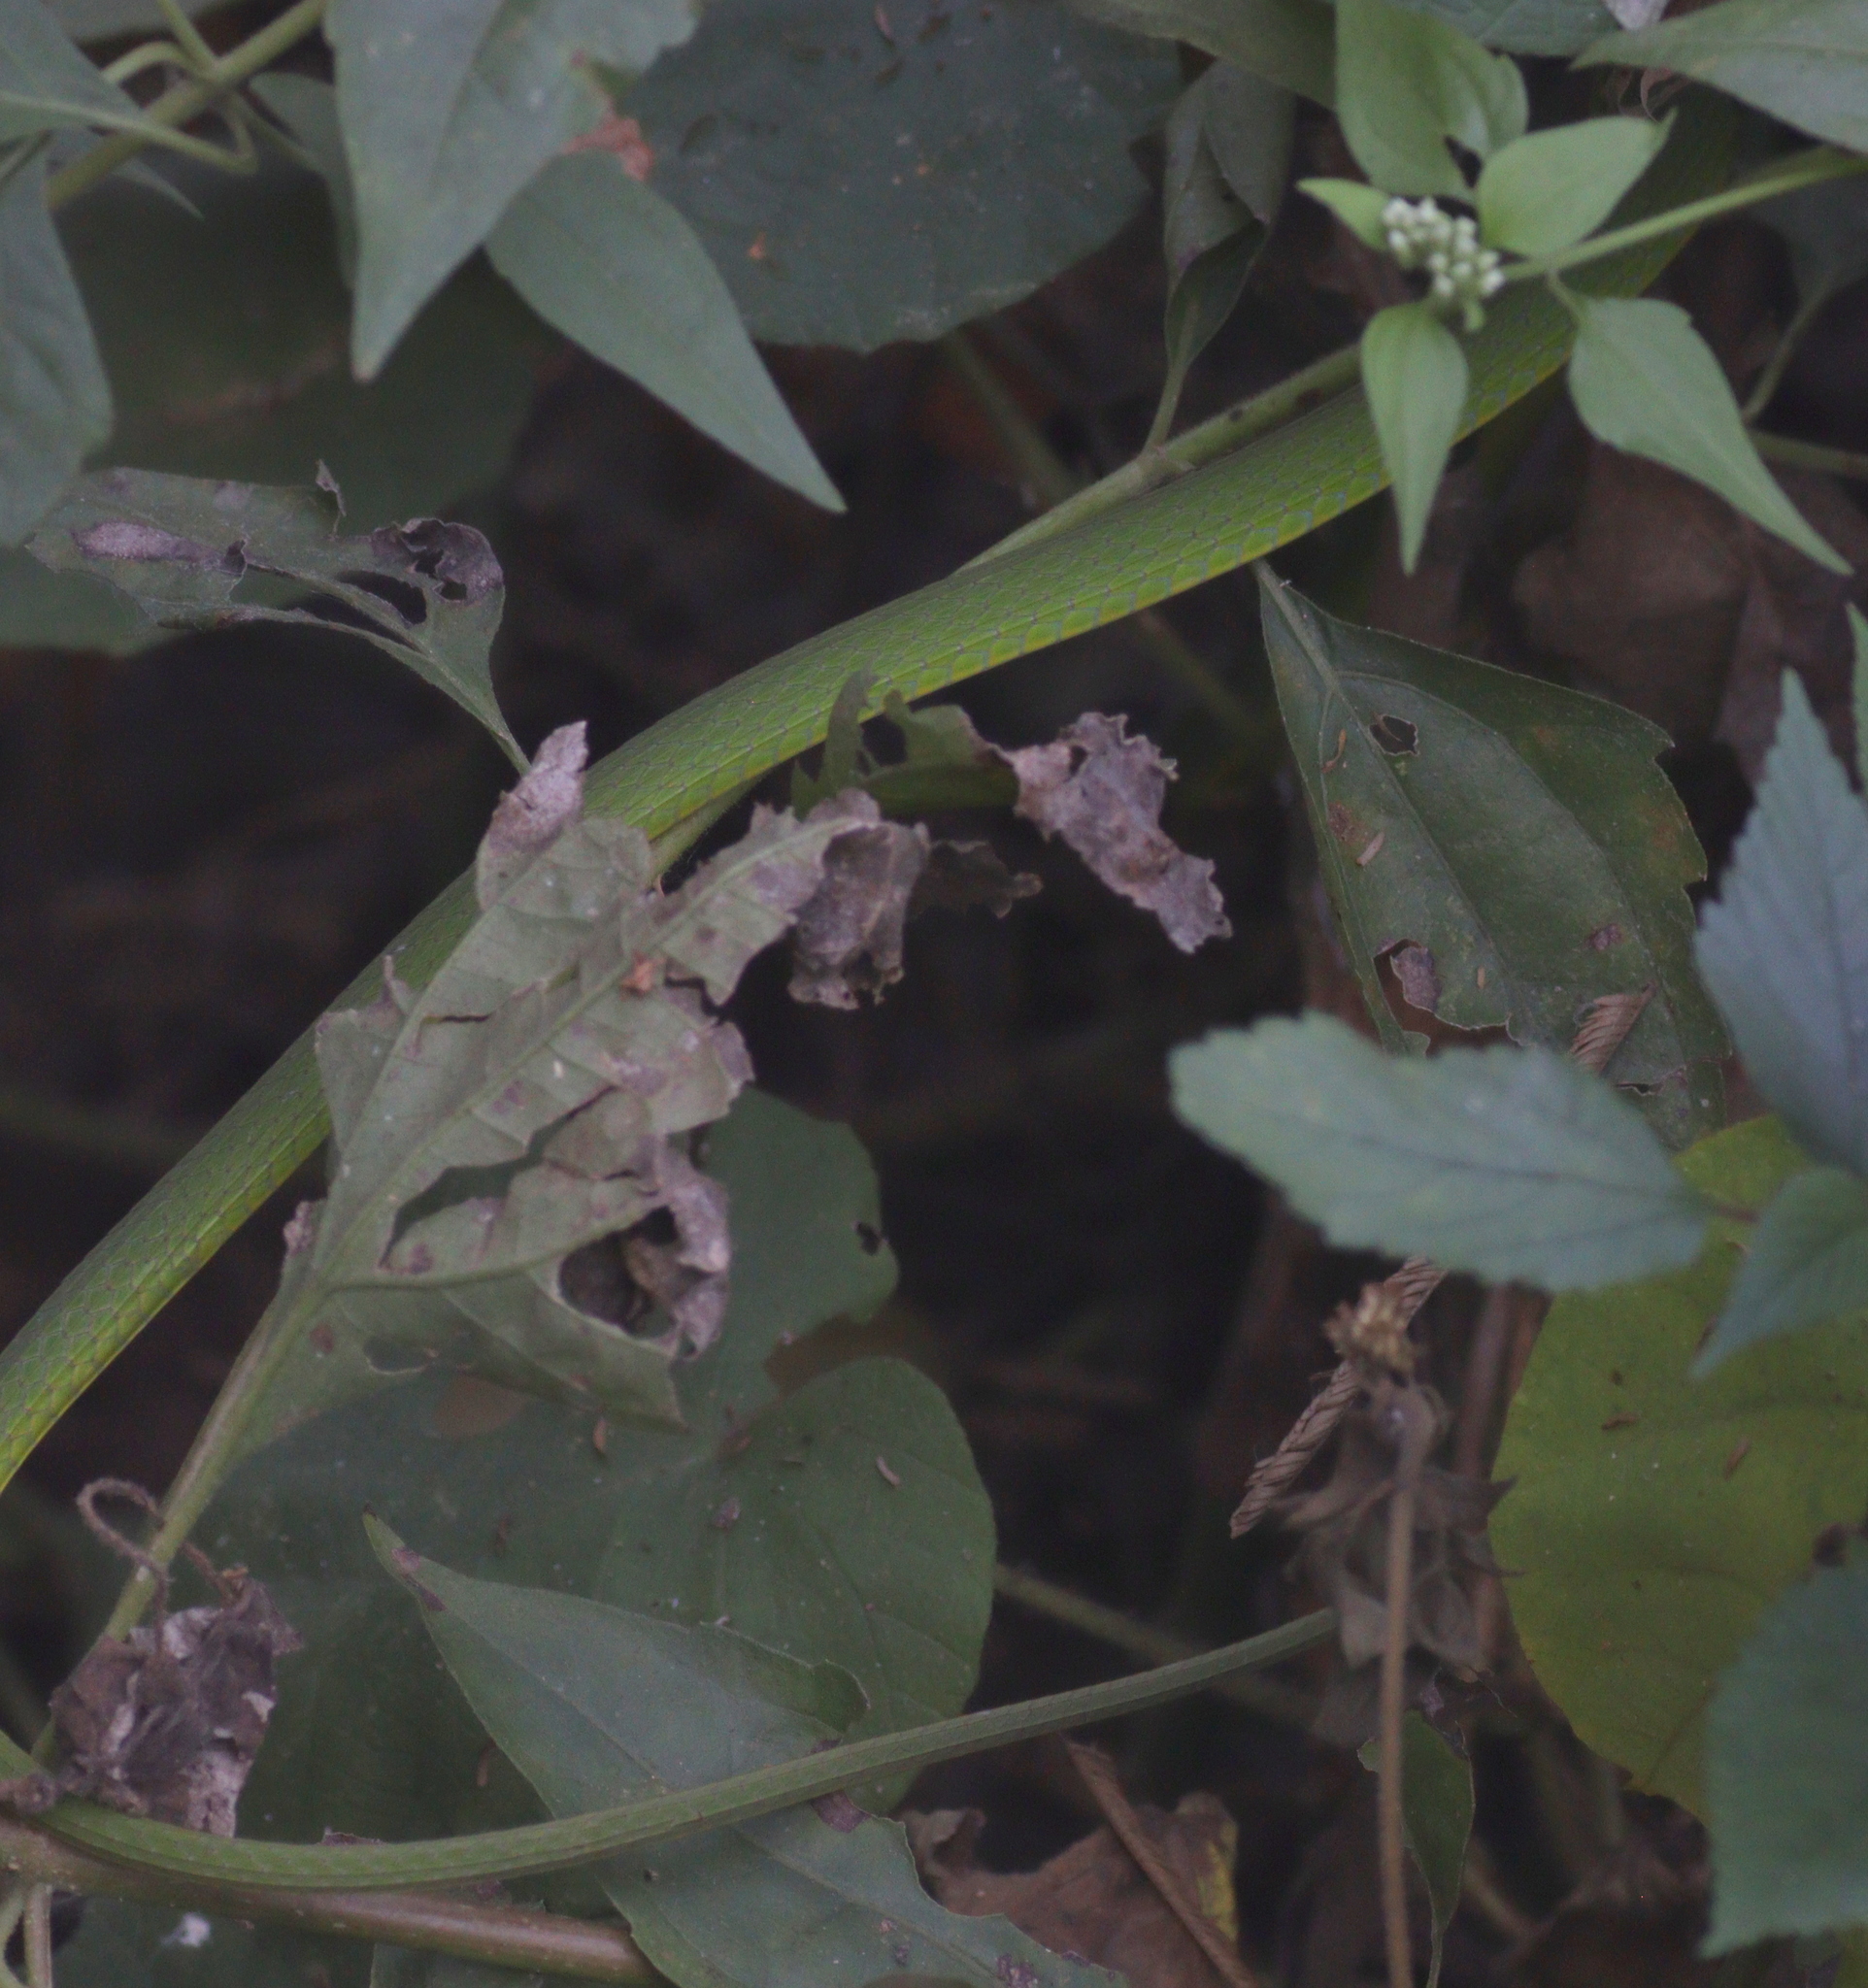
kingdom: Animalia
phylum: Chordata
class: Squamata
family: Colubridae
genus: Hapsidophrys
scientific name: Hapsidophrys smaragdinus
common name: Emerald snake
